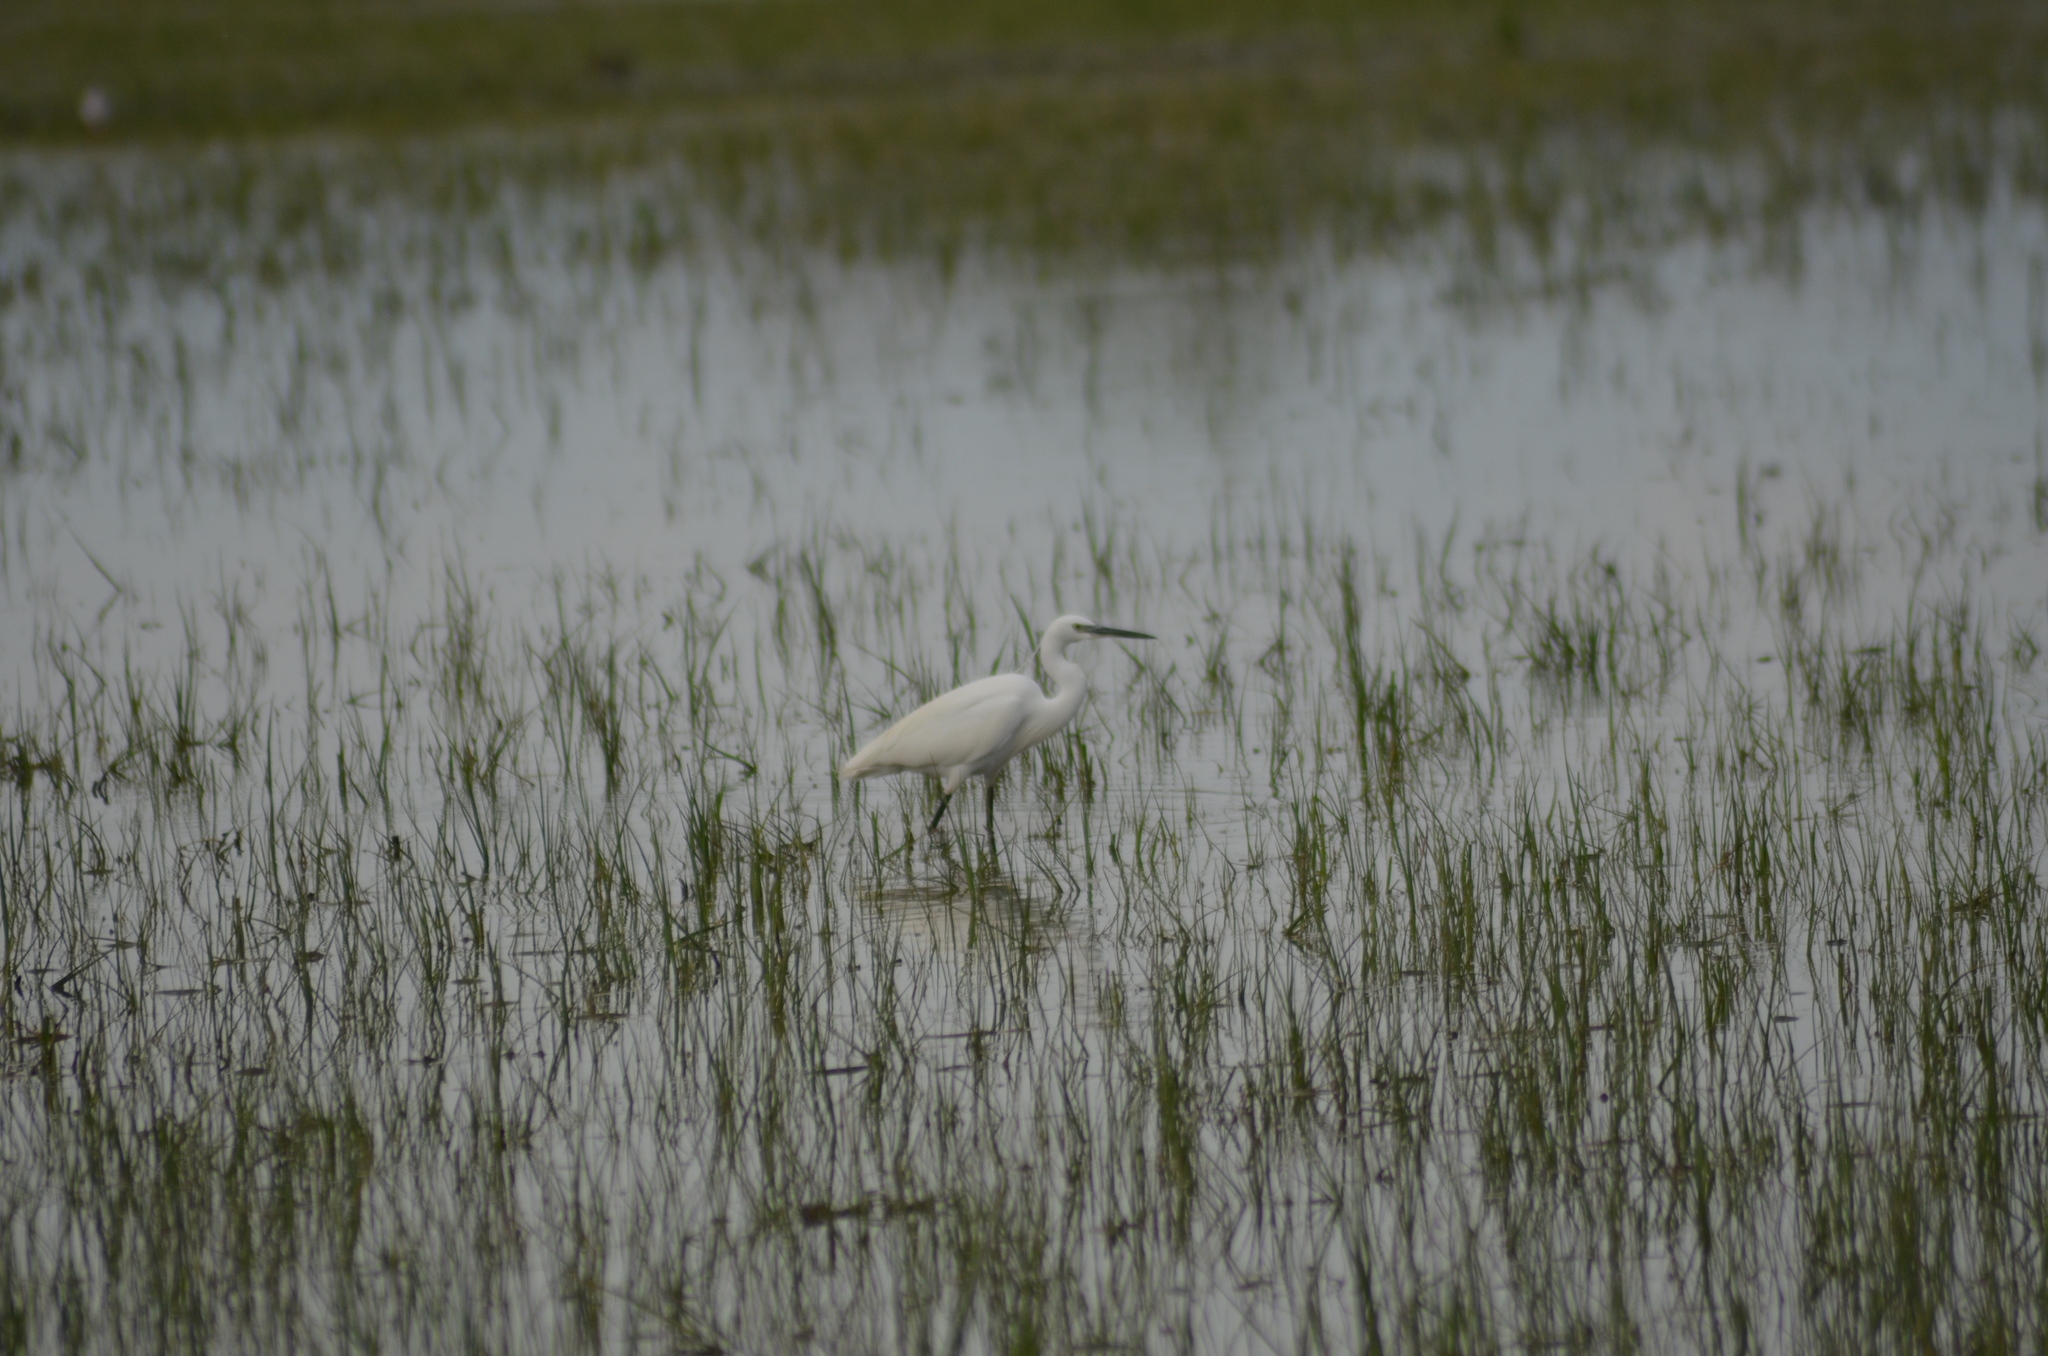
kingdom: Animalia
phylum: Chordata
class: Aves
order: Pelecaniformes
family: Ardeidae
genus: Egretta
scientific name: Egretta garzetta
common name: Little egret
